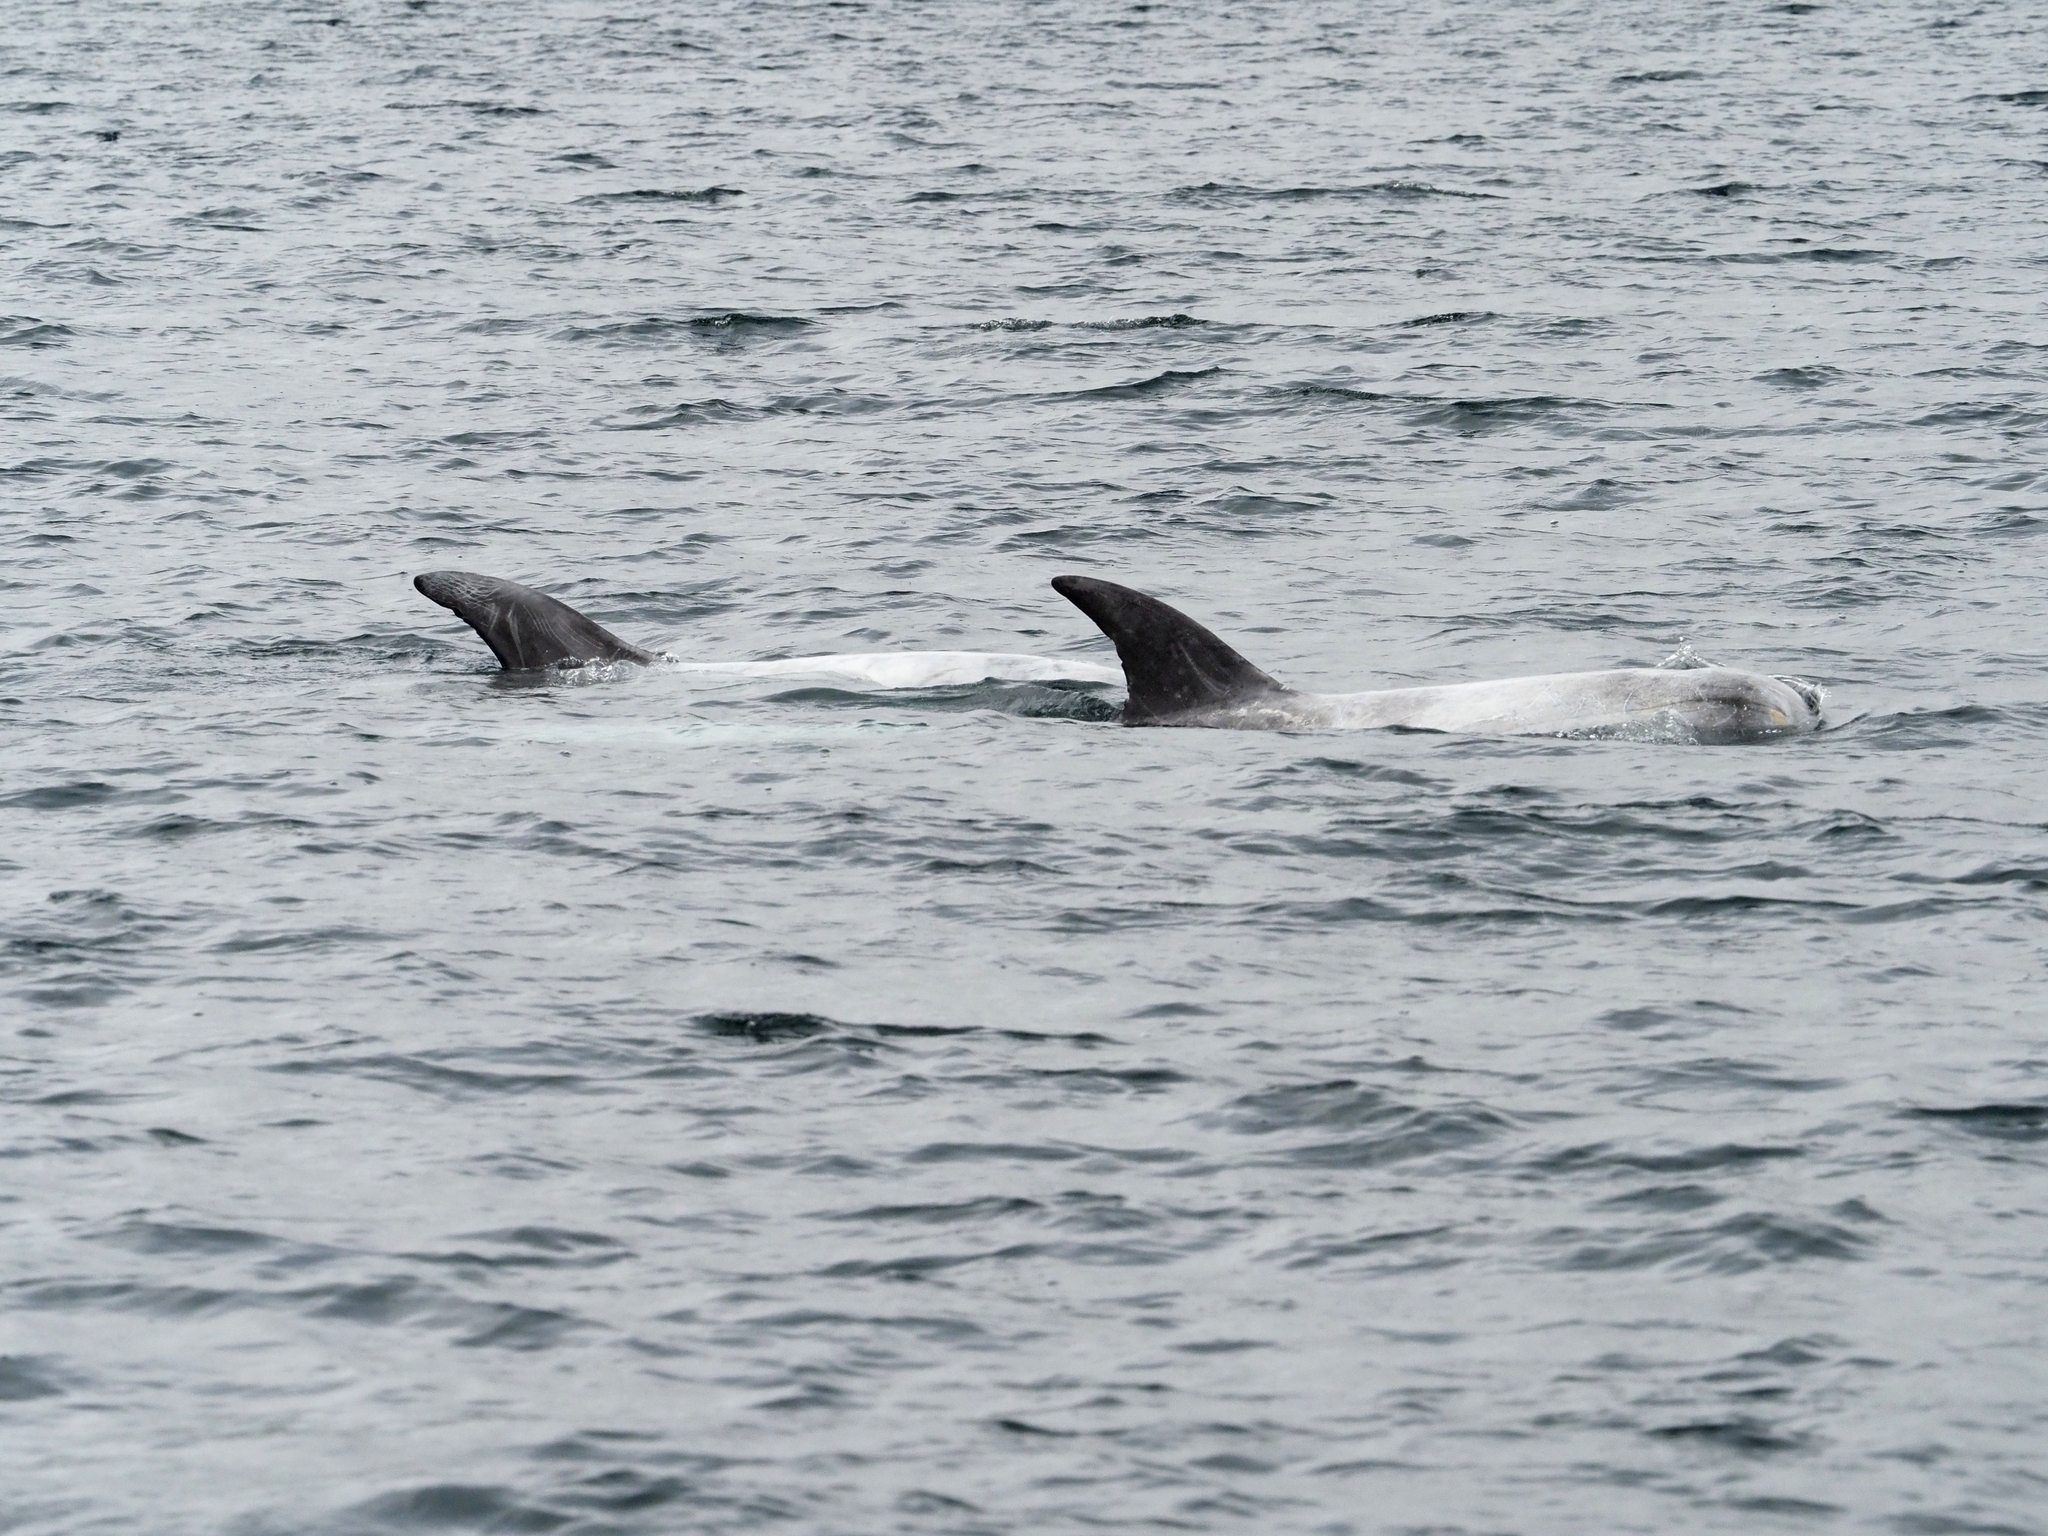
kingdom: Animalia
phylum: Chordata
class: Mammalia
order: Cetacea
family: Delphinidae
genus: Grampus
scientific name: Grampus griseus
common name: Risso's dolphin
